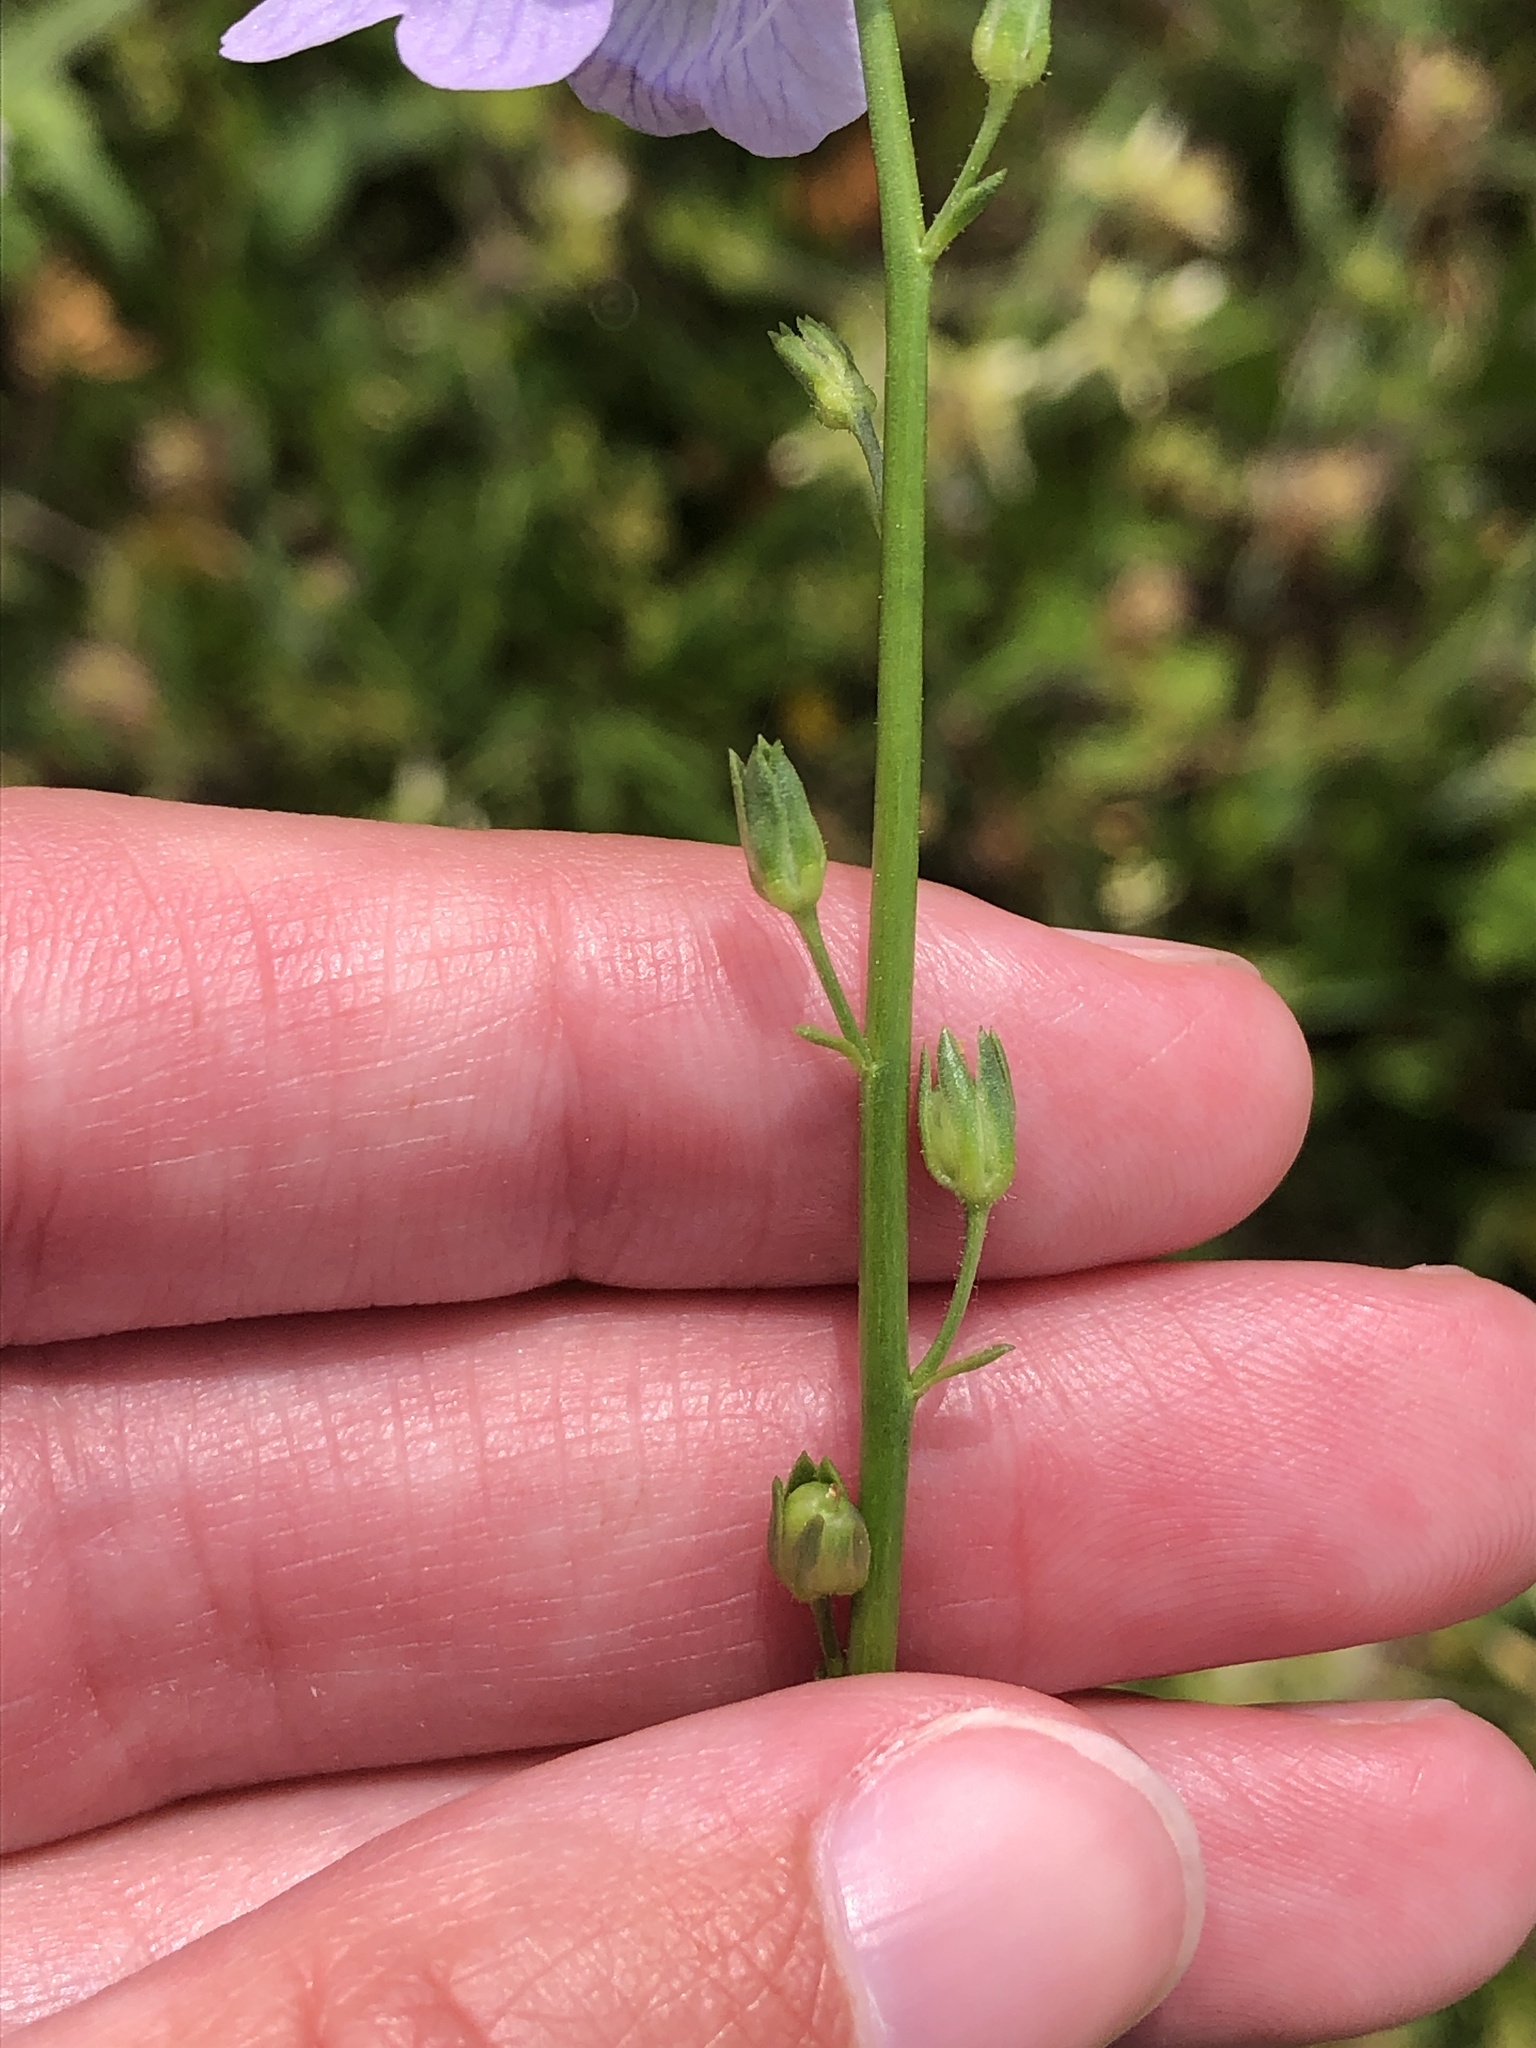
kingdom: Plantae
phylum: Tracheophyta
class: Magnoliopsida
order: Lamiales
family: Plantaginaceae
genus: Nuttallanthus
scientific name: Nuttallanthus texanus
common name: Texas toadflax
